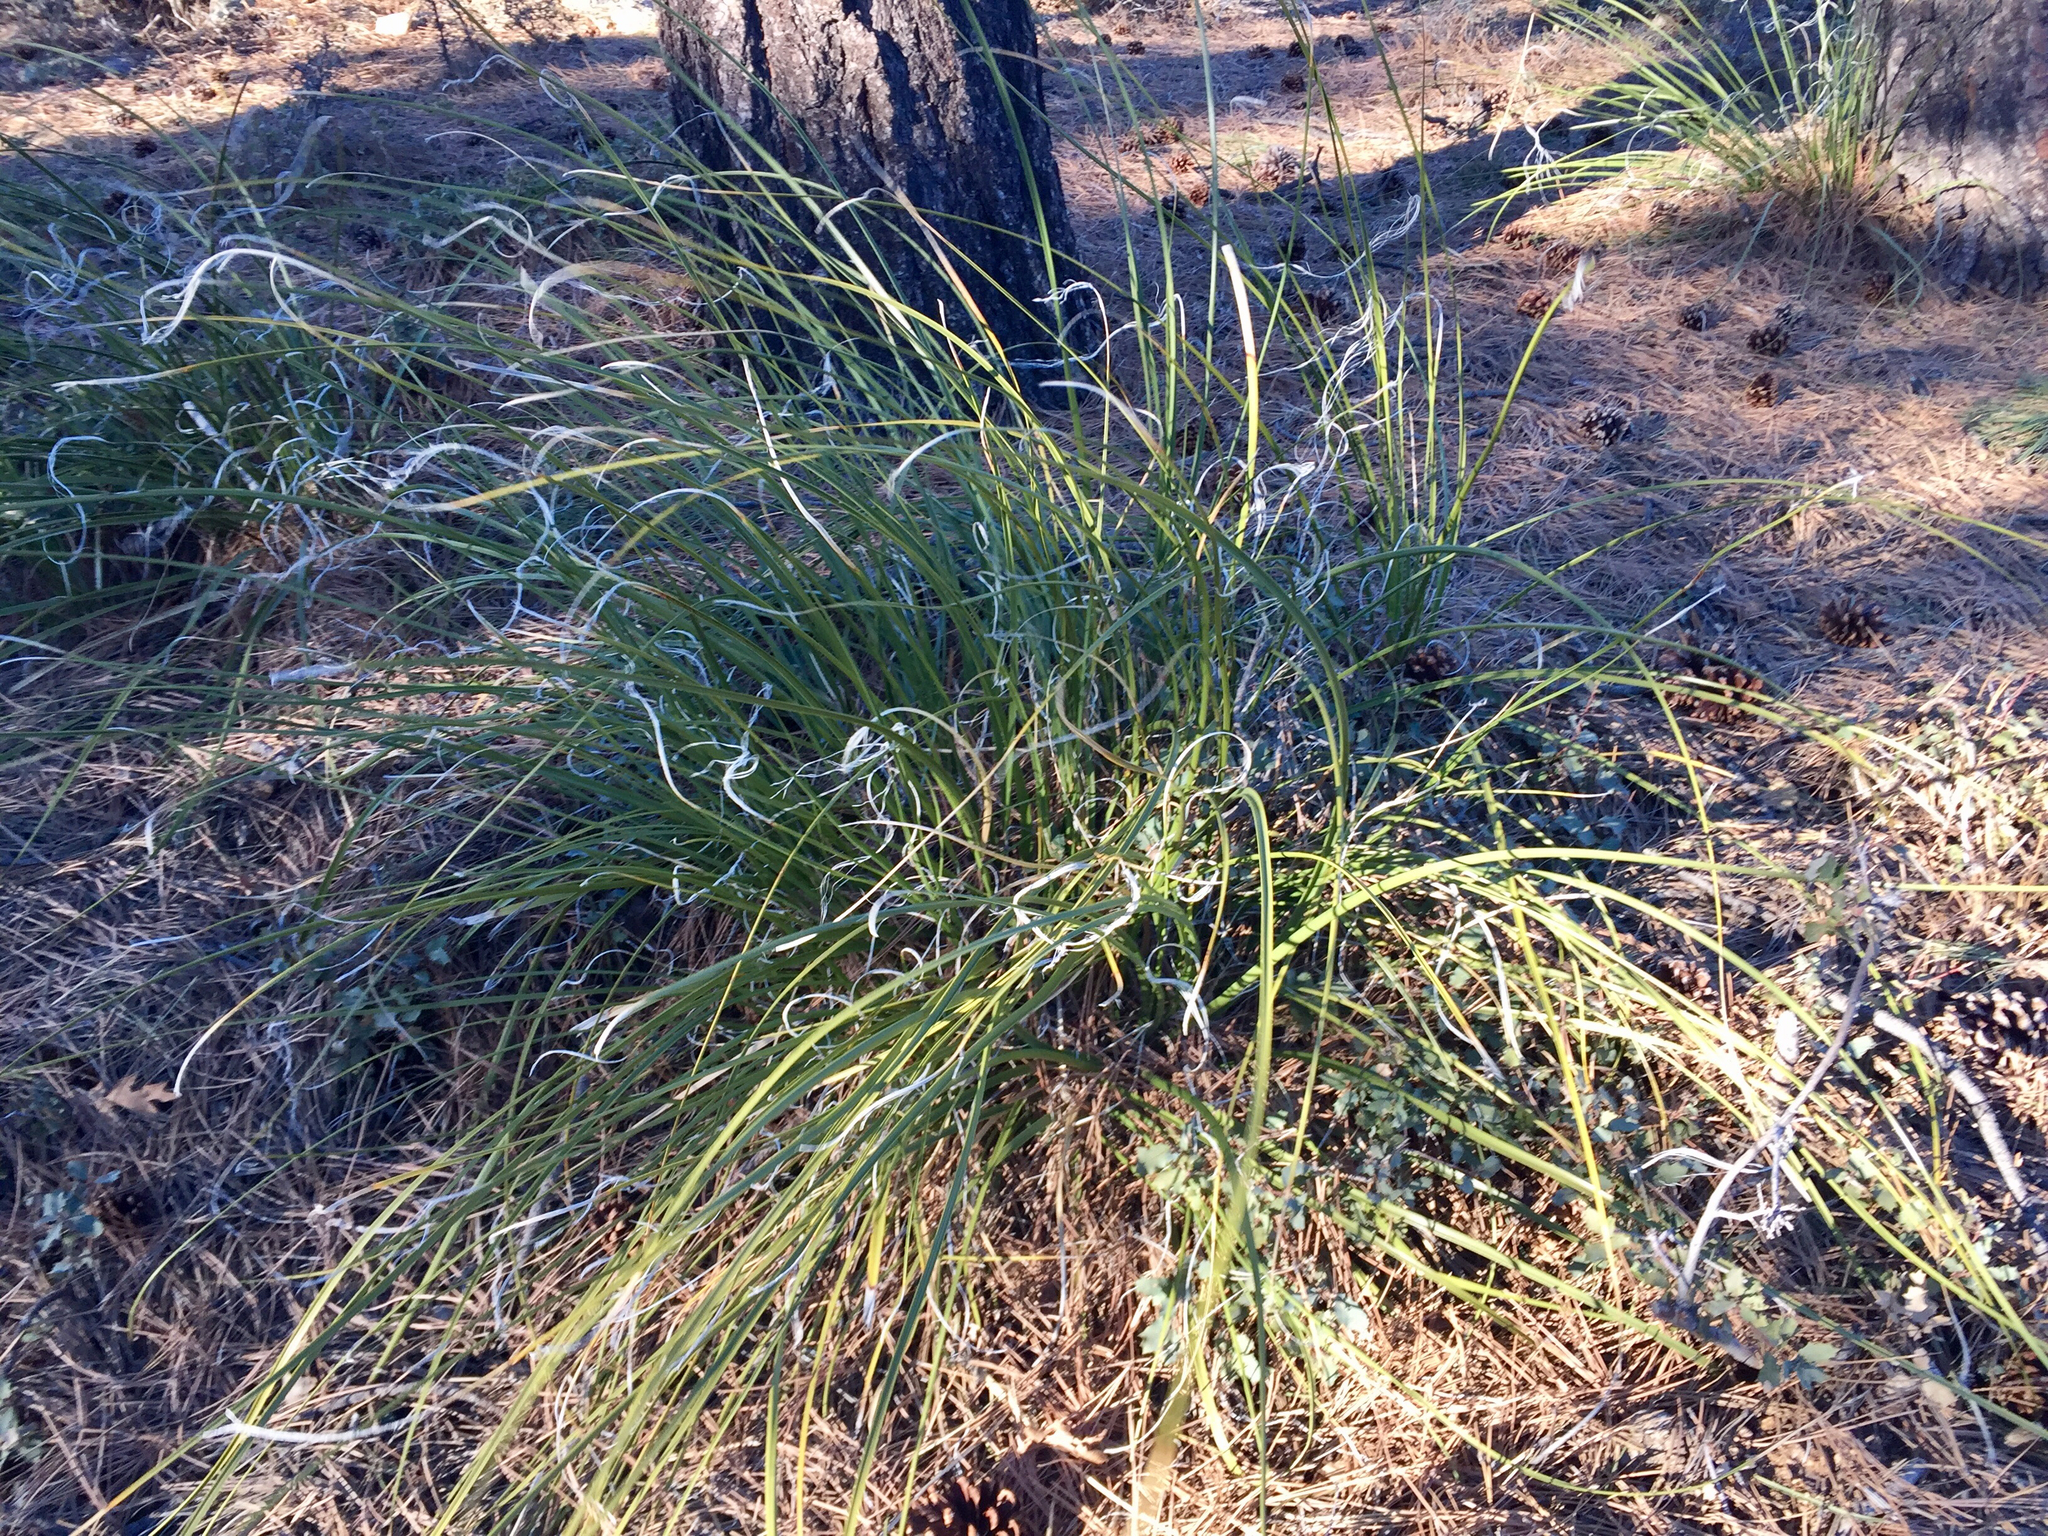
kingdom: Plantae
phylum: Tracheophyta
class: Liliopsida
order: Asparagales
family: Asparagaceae
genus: Nolina
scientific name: Nolina microcarpa
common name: Bear-grass
